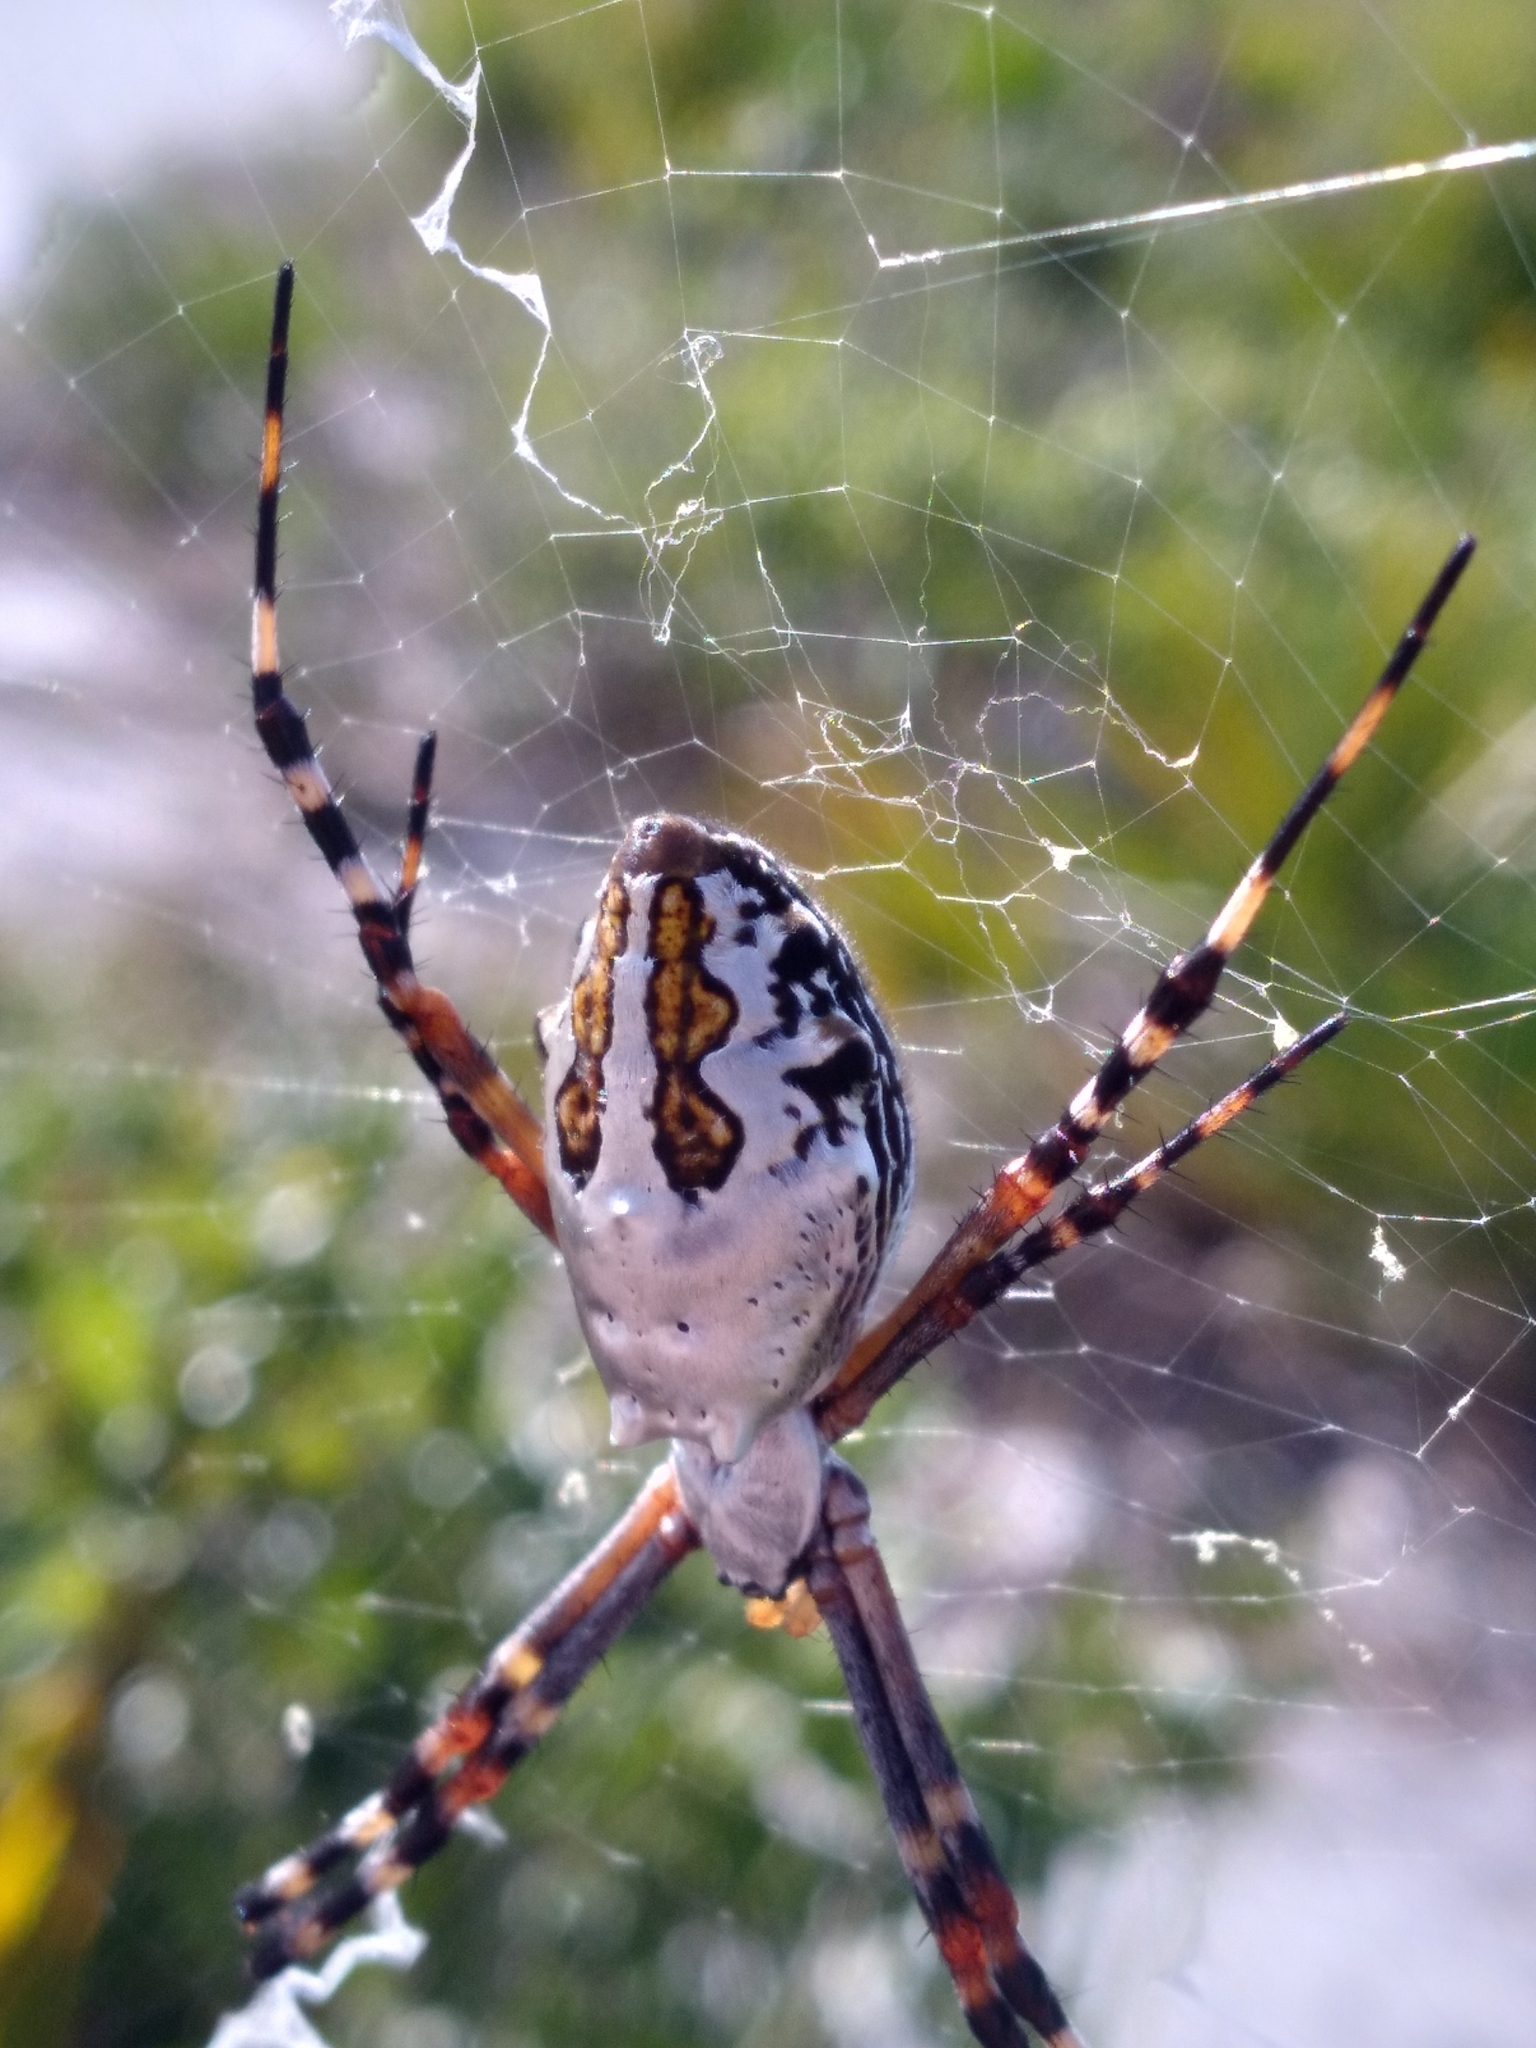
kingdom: Animalia
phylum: Arthropoda
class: Arachnida
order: Araneae
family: Araneidae
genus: Argiope
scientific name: Argiope florida
